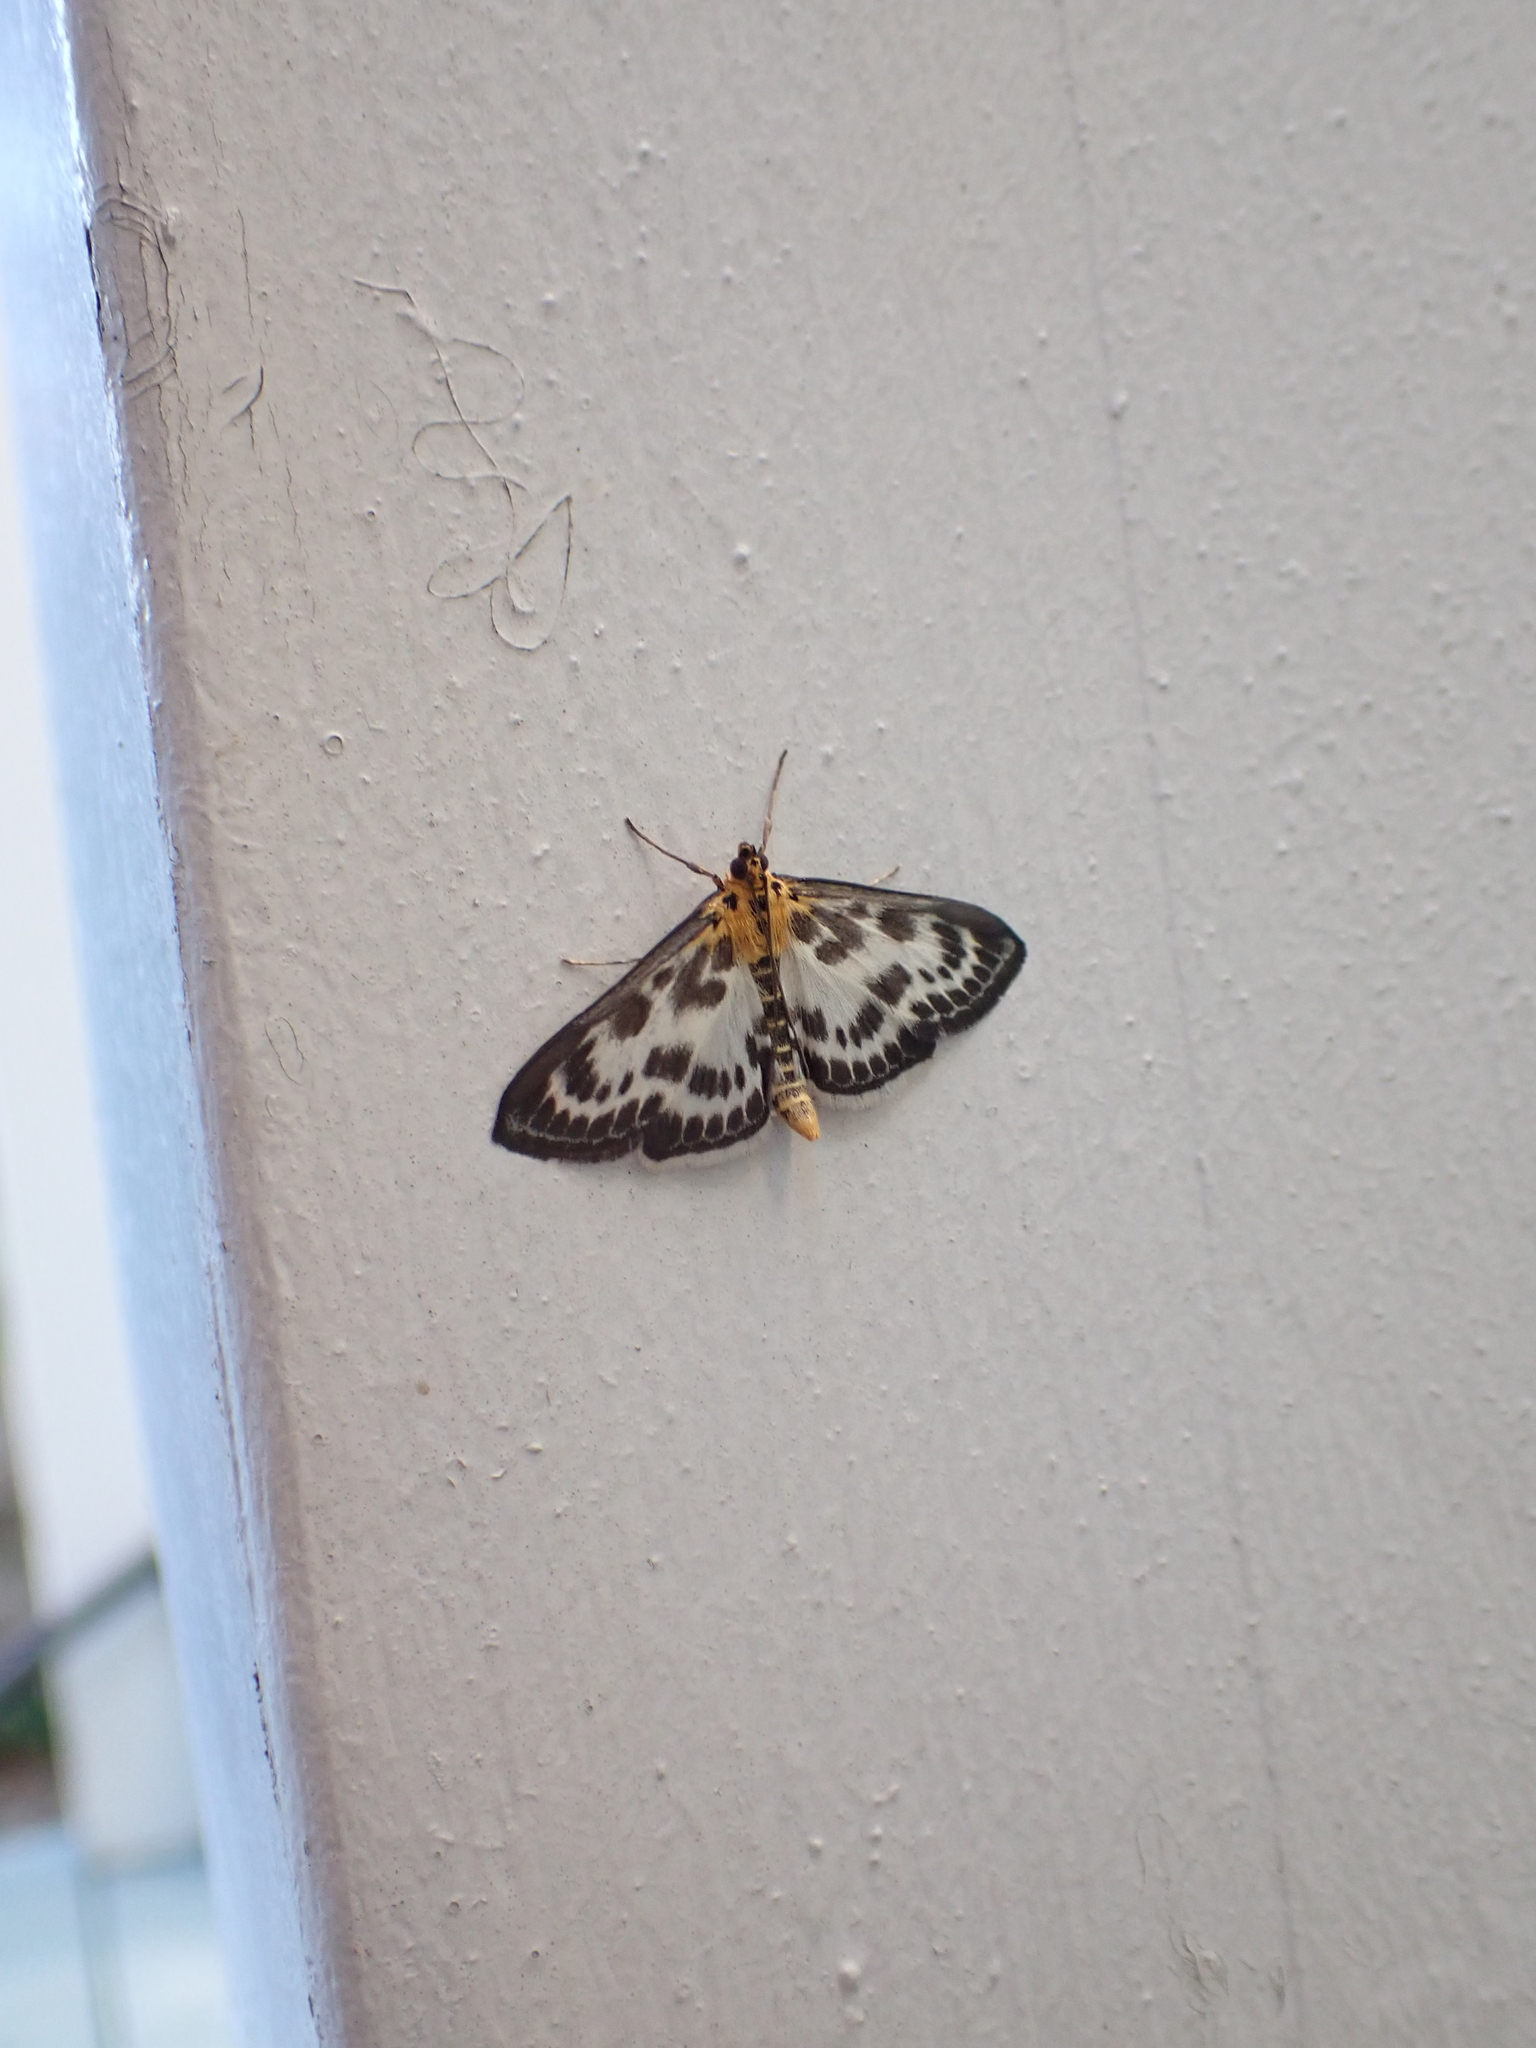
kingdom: Animalia
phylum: Arthropoda
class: Insecta
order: Lepidoptera
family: Crambidae
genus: Anania
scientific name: Anania hortulata
